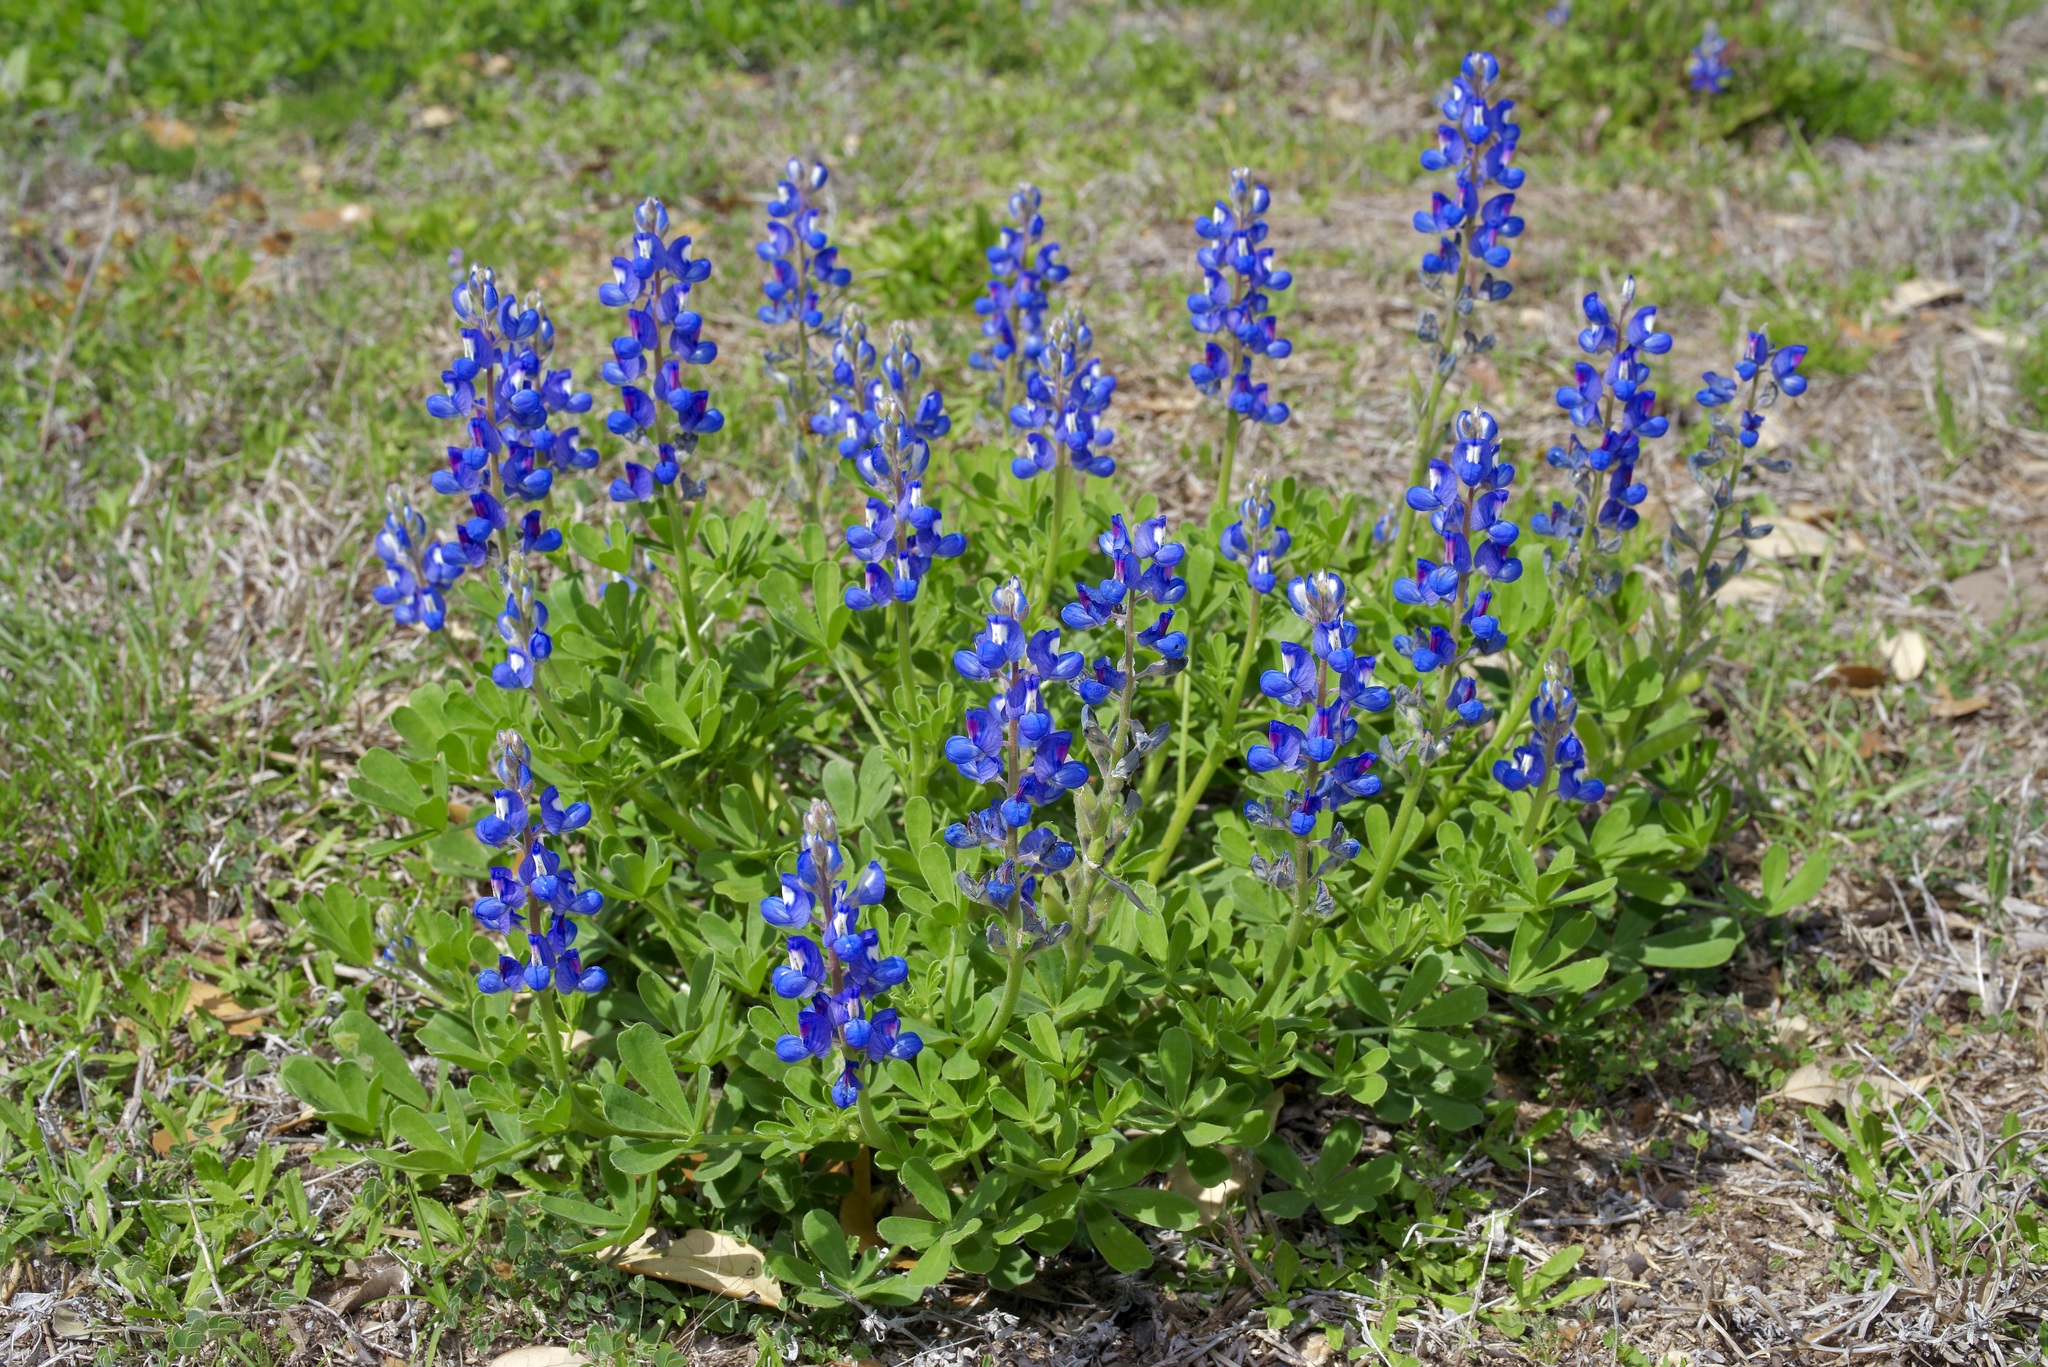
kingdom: Plantae
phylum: Tracheophyta
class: Magnoliopsida
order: Fabales
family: Fabaceae
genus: Lupinus
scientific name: Lupinus subcarnosus
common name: Texas bluebonnet
